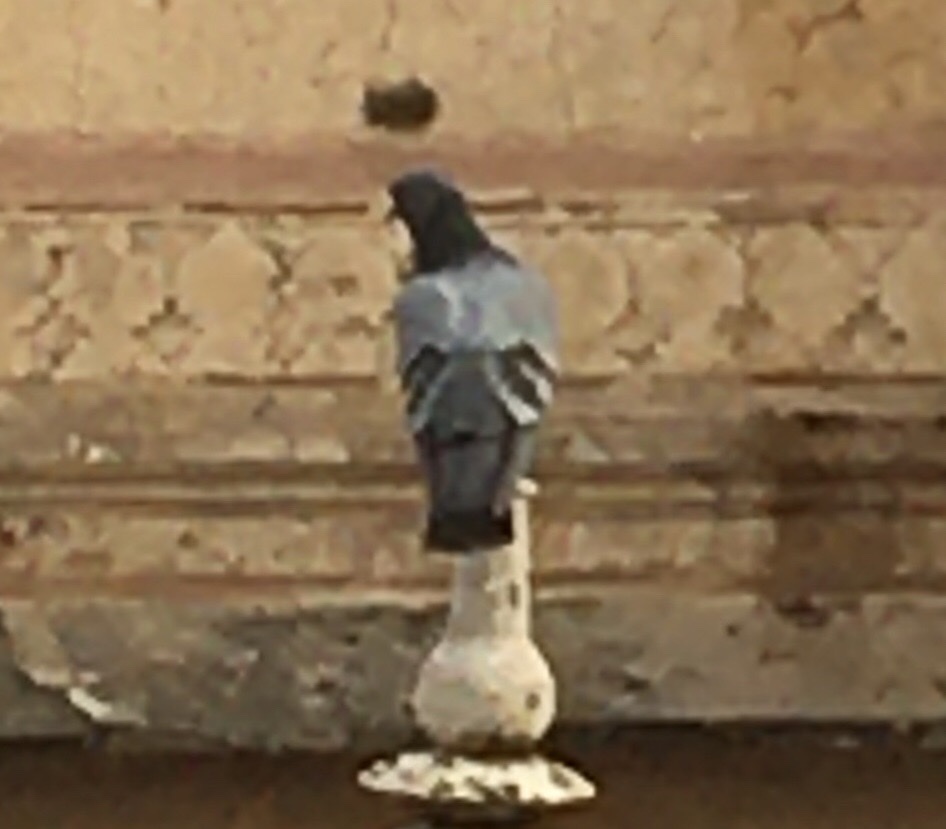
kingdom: Animalia
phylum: Chordata
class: Aves
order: Columbiformes
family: Columbidae
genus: Columba
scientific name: Columba livia
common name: Rock pigeon
